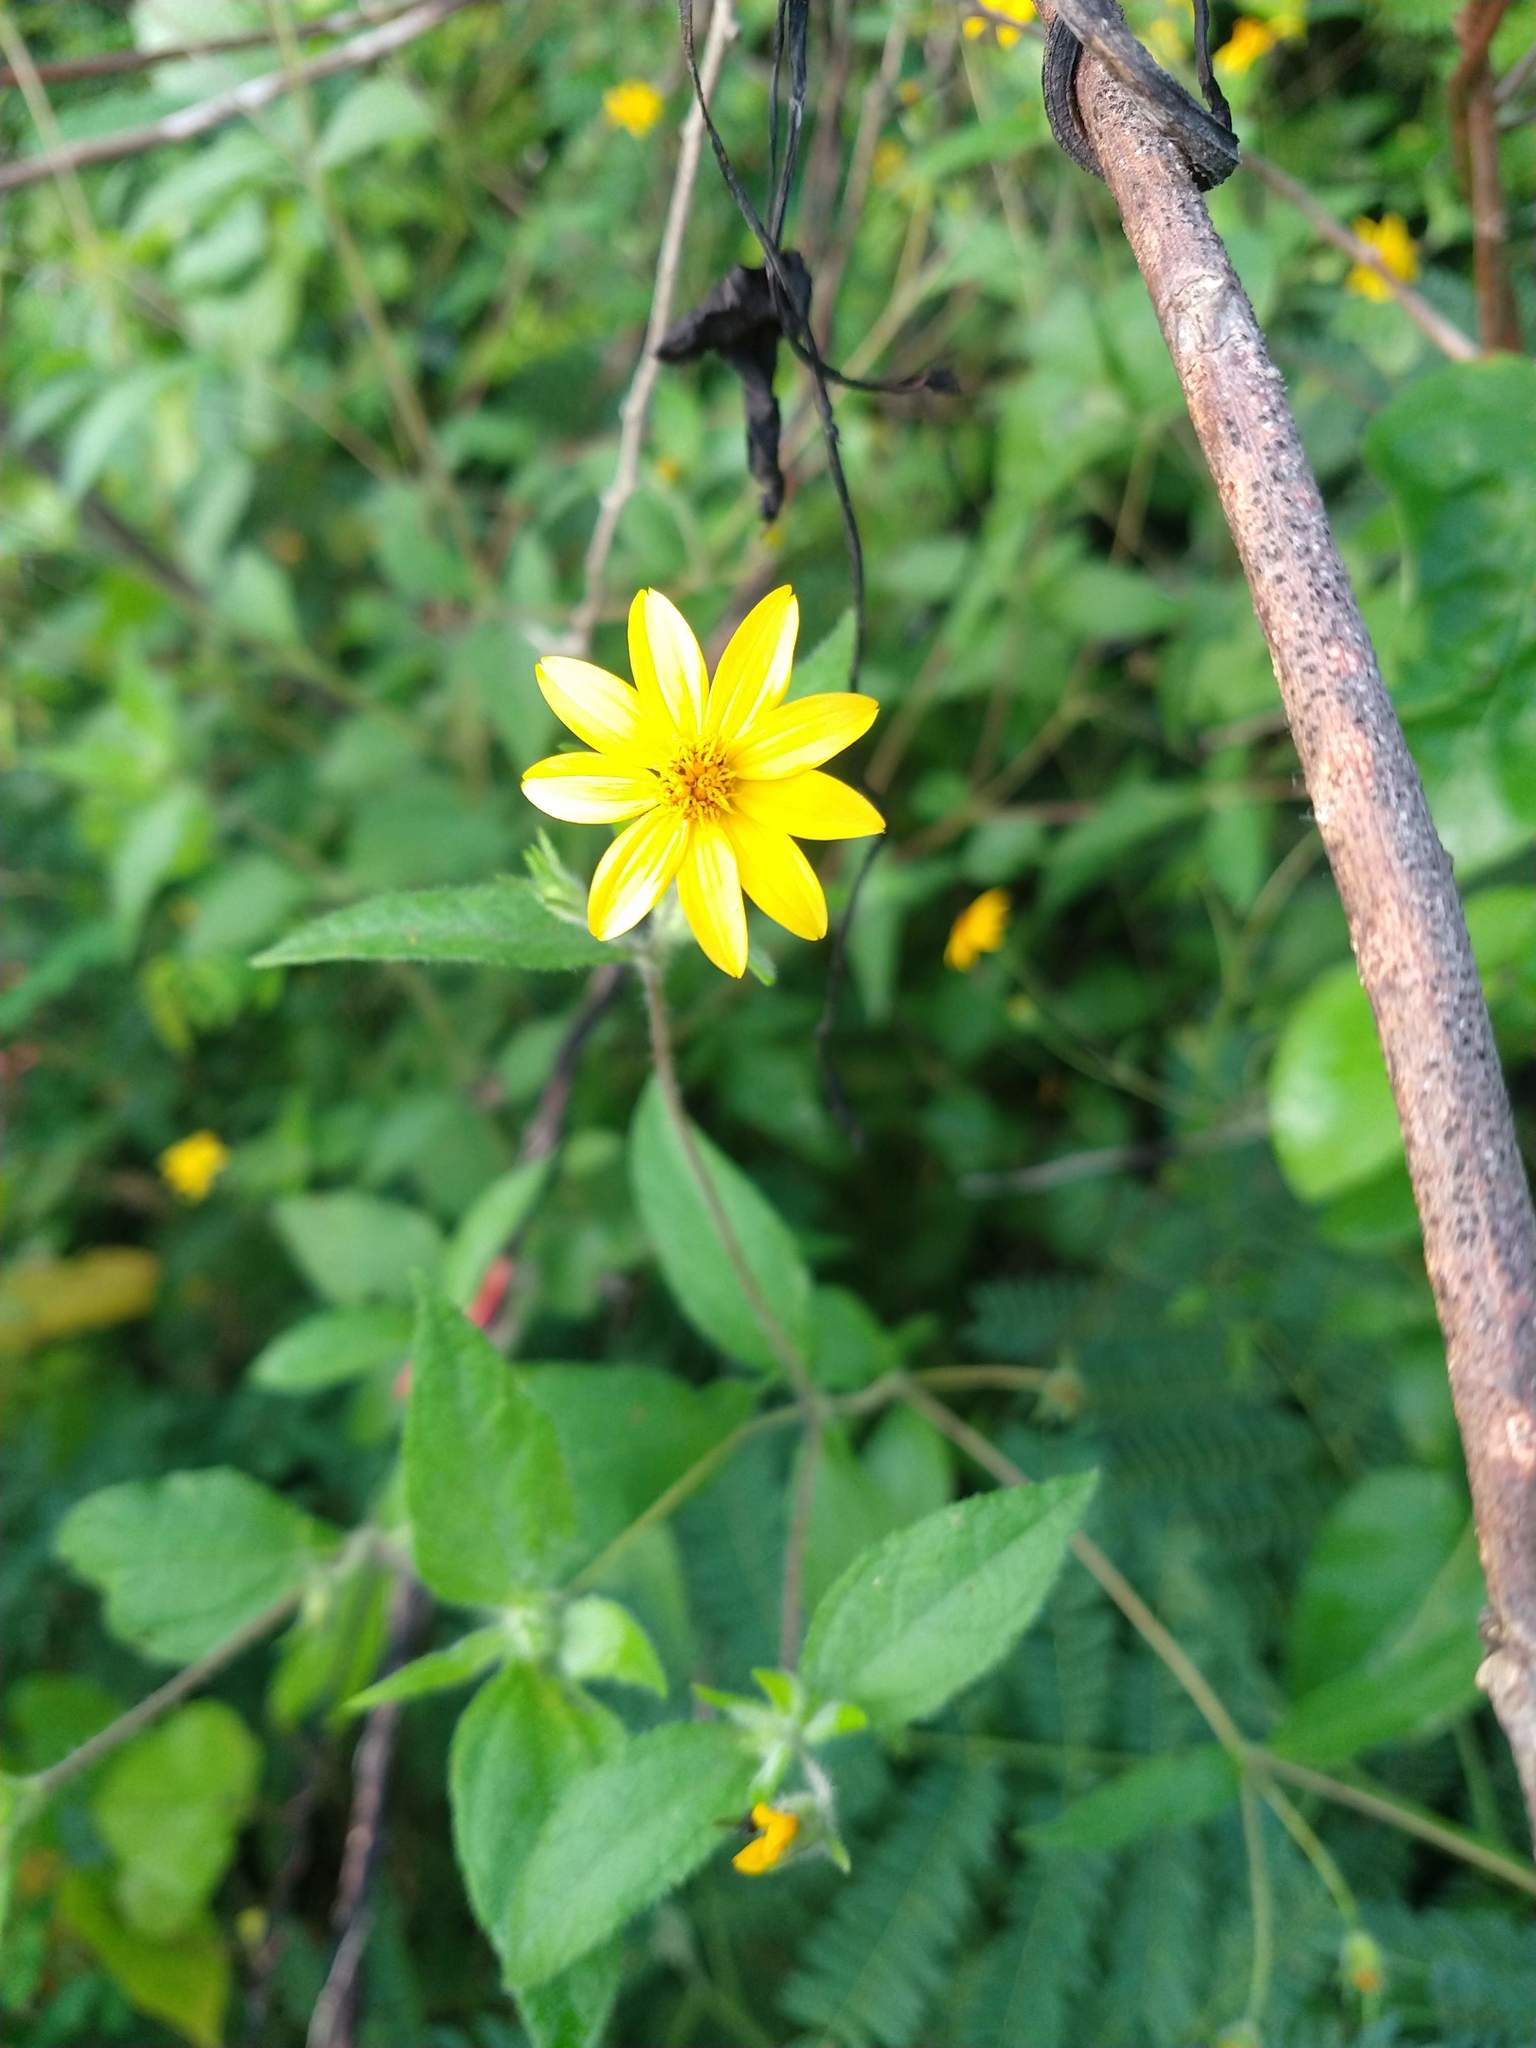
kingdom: Plantae
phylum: Tracheophyta
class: Magnoliopsida
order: Asterales
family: Asteraceae
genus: Wedelia
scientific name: Wedelia acapulcensis
